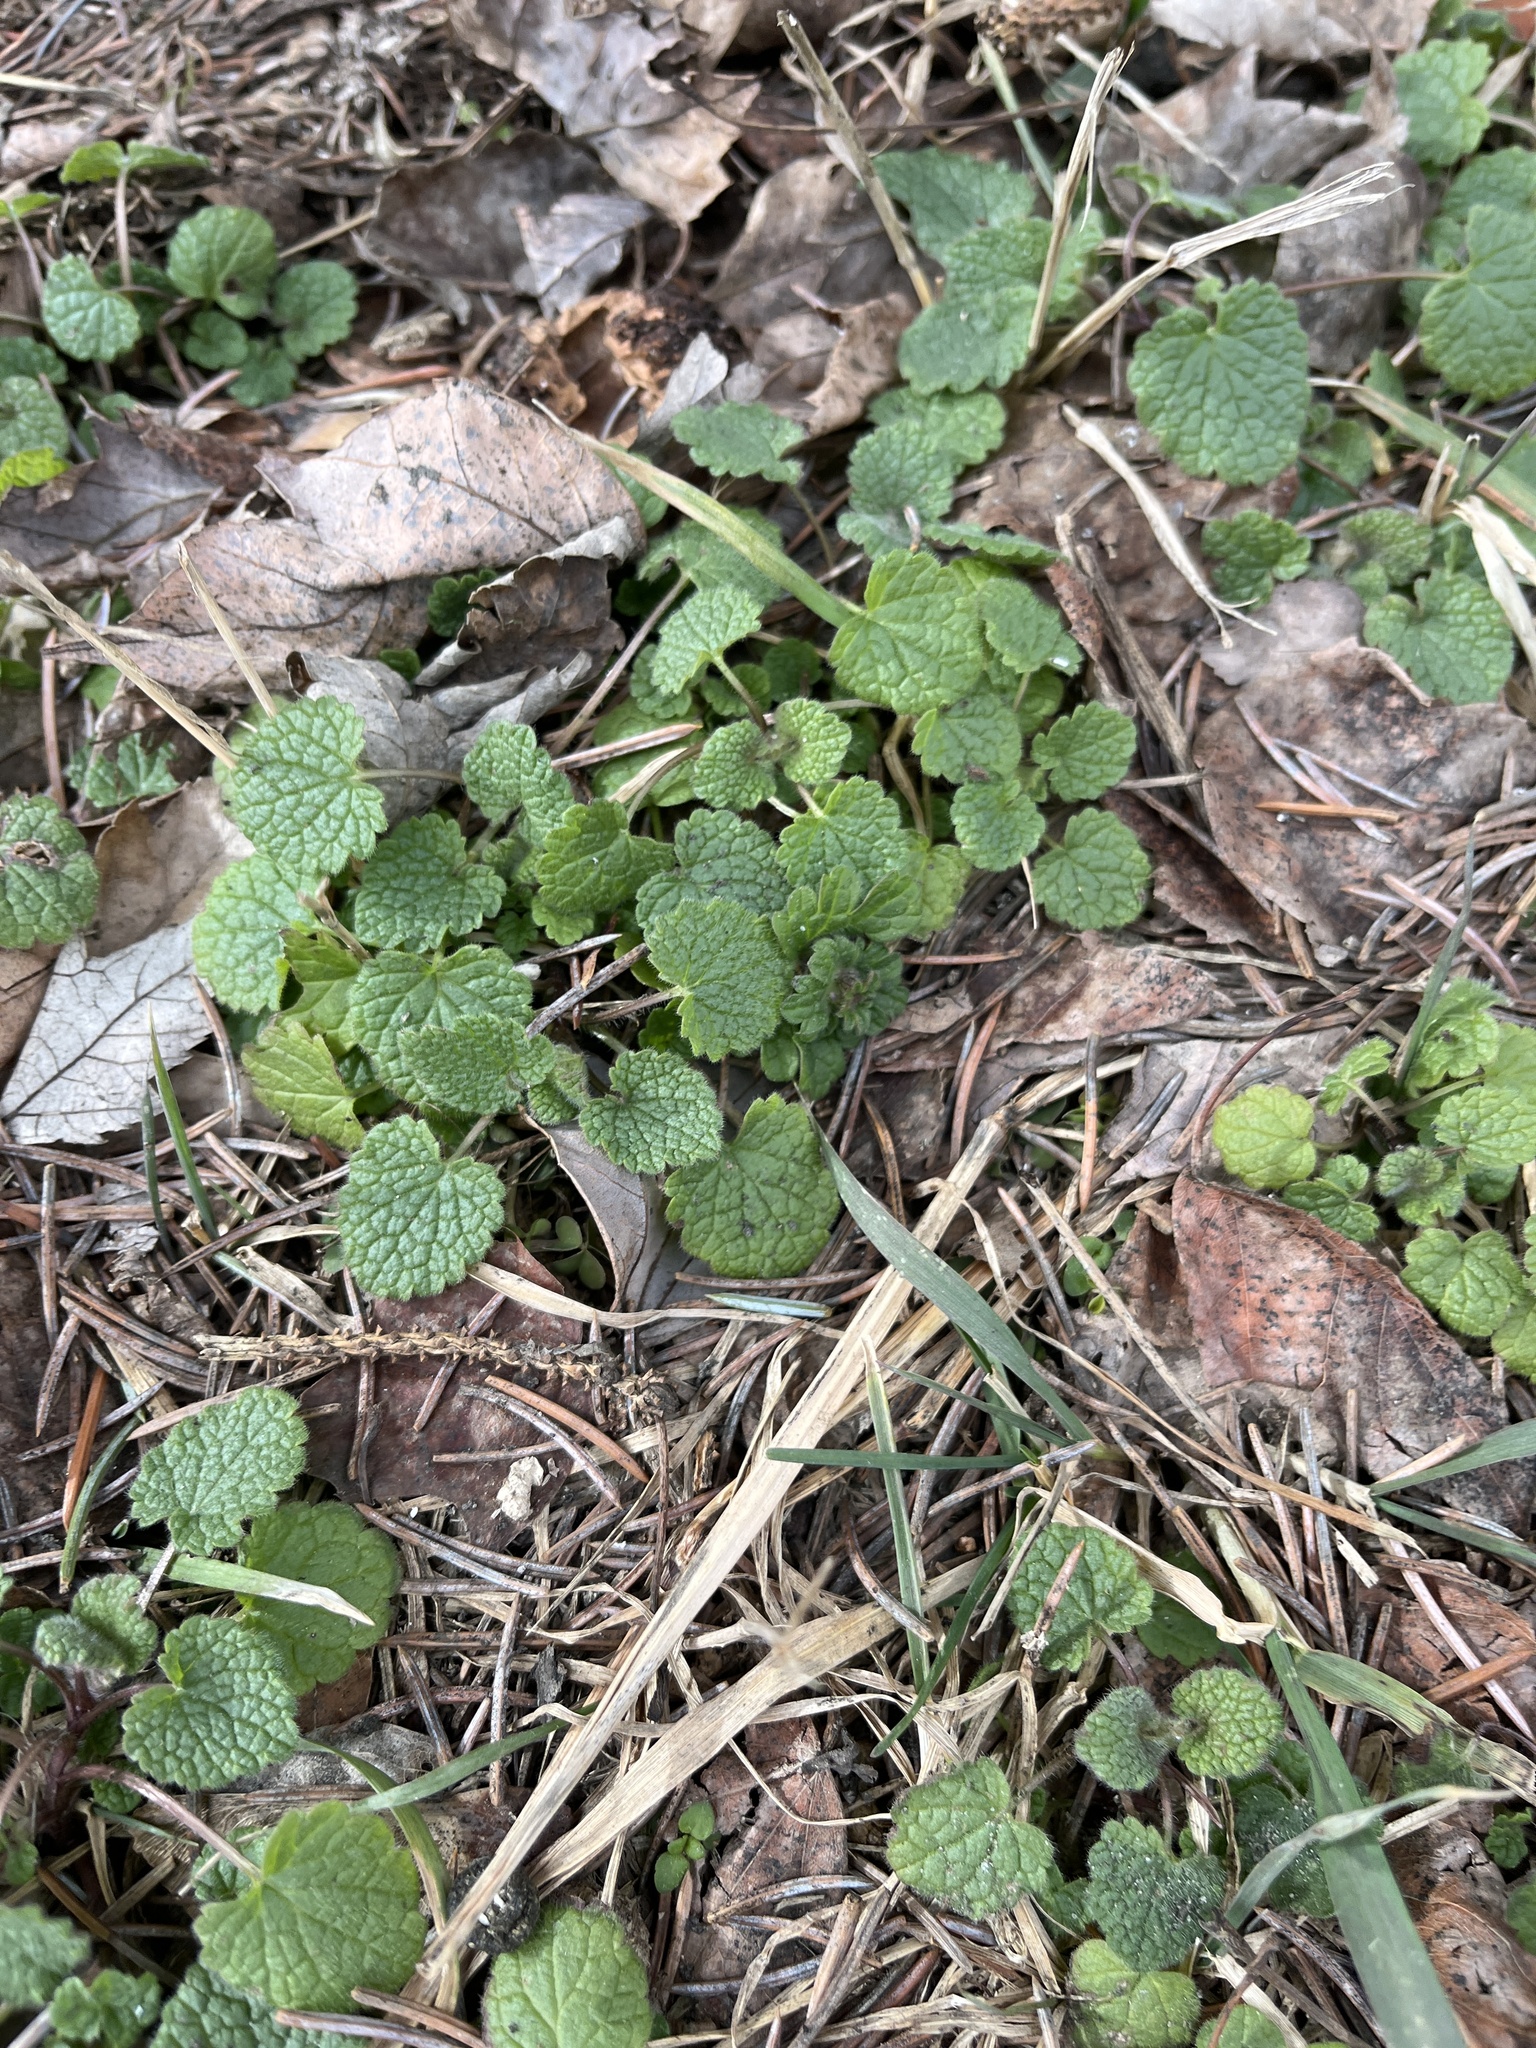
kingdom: Plantae
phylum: Tracheophyta
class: Magnoliopsida
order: Lamiales
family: Lamiaceae
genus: Lamium
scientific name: Lamium purpureum
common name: Red dead-nettle
